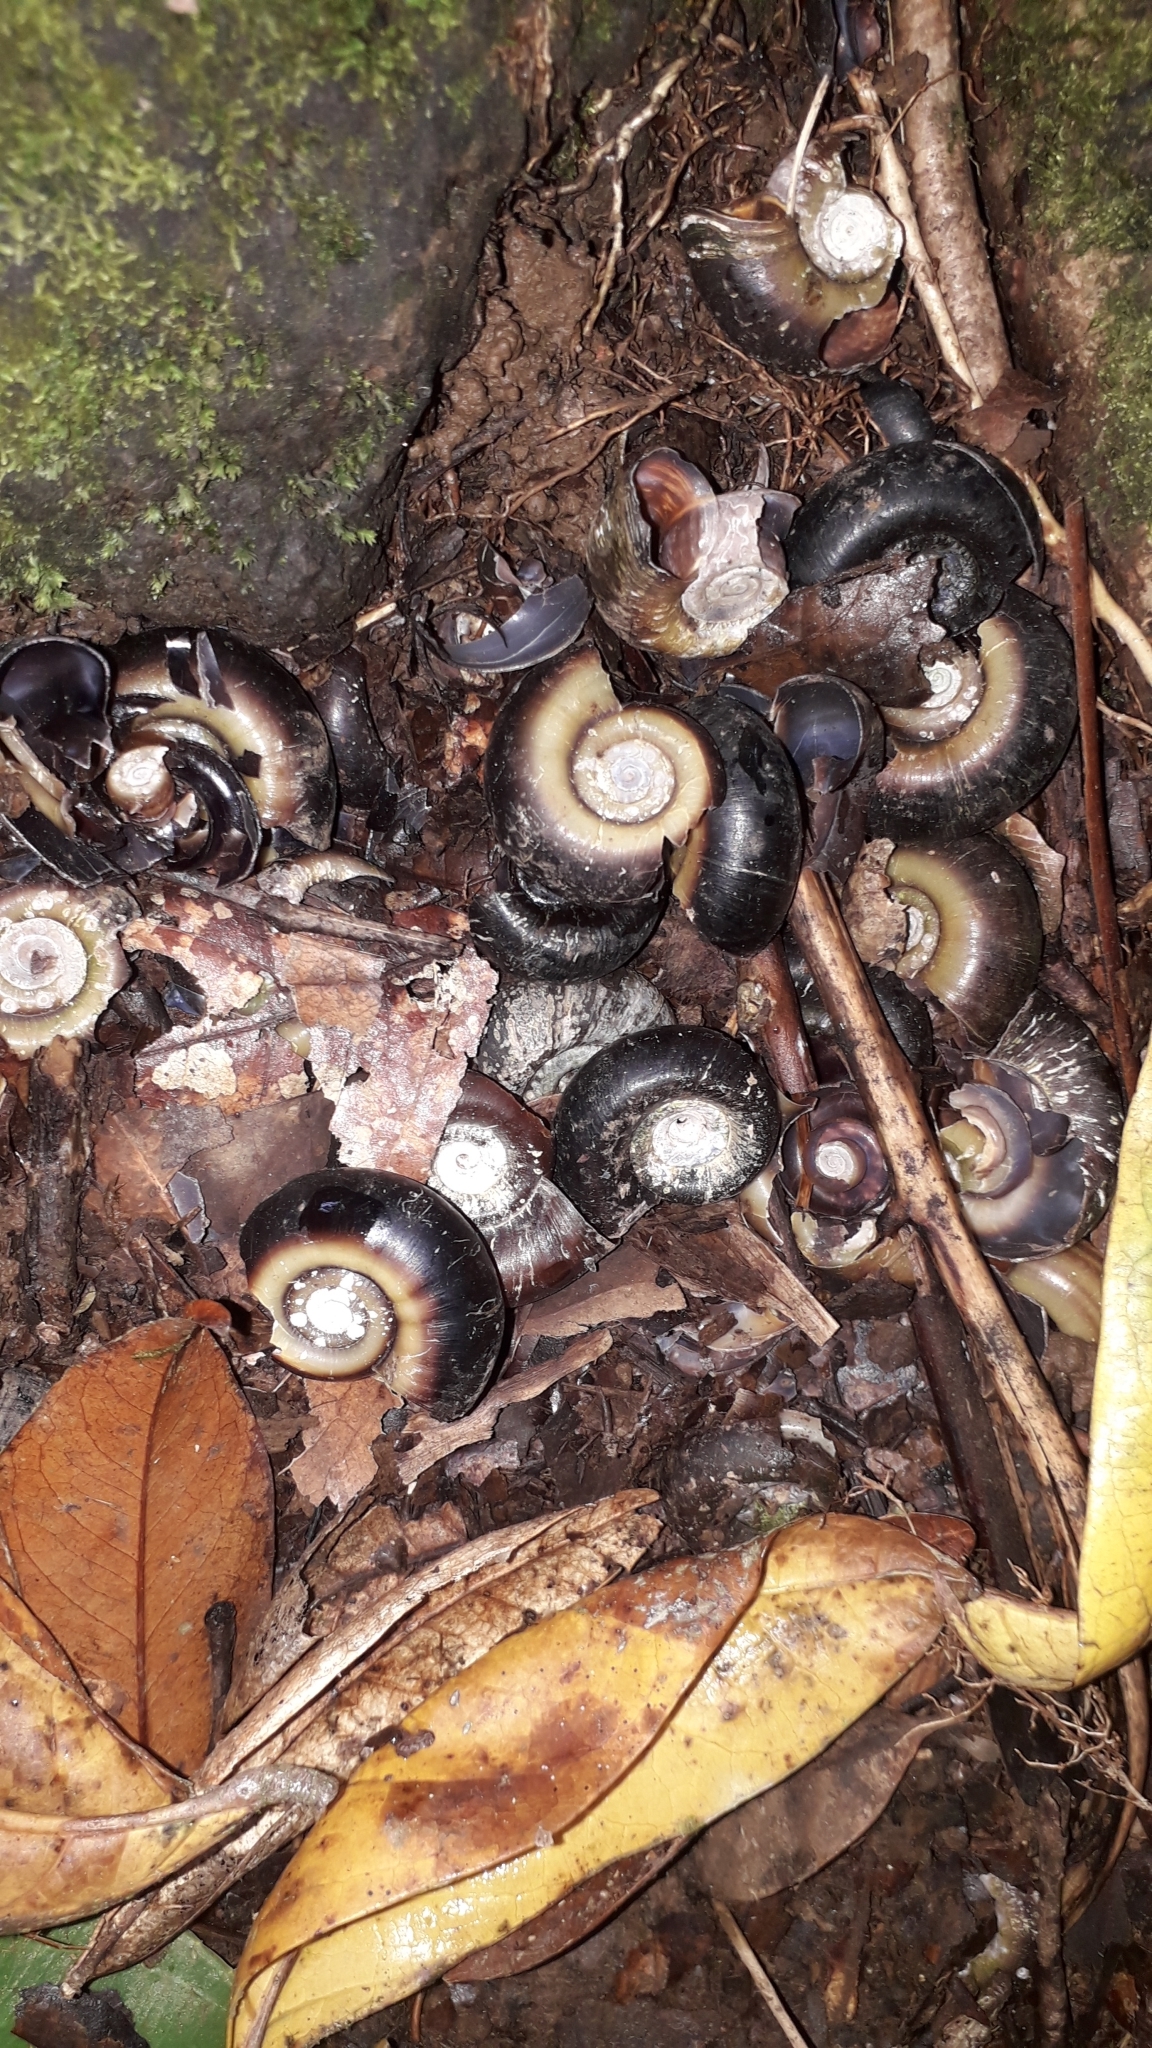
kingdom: Animalia
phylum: Mollusca
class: Gastropoda
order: Architaenioglossa
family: Ampullariidae
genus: Marisa
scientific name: Marisa cornuarietis
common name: Giant ramshorn snail
